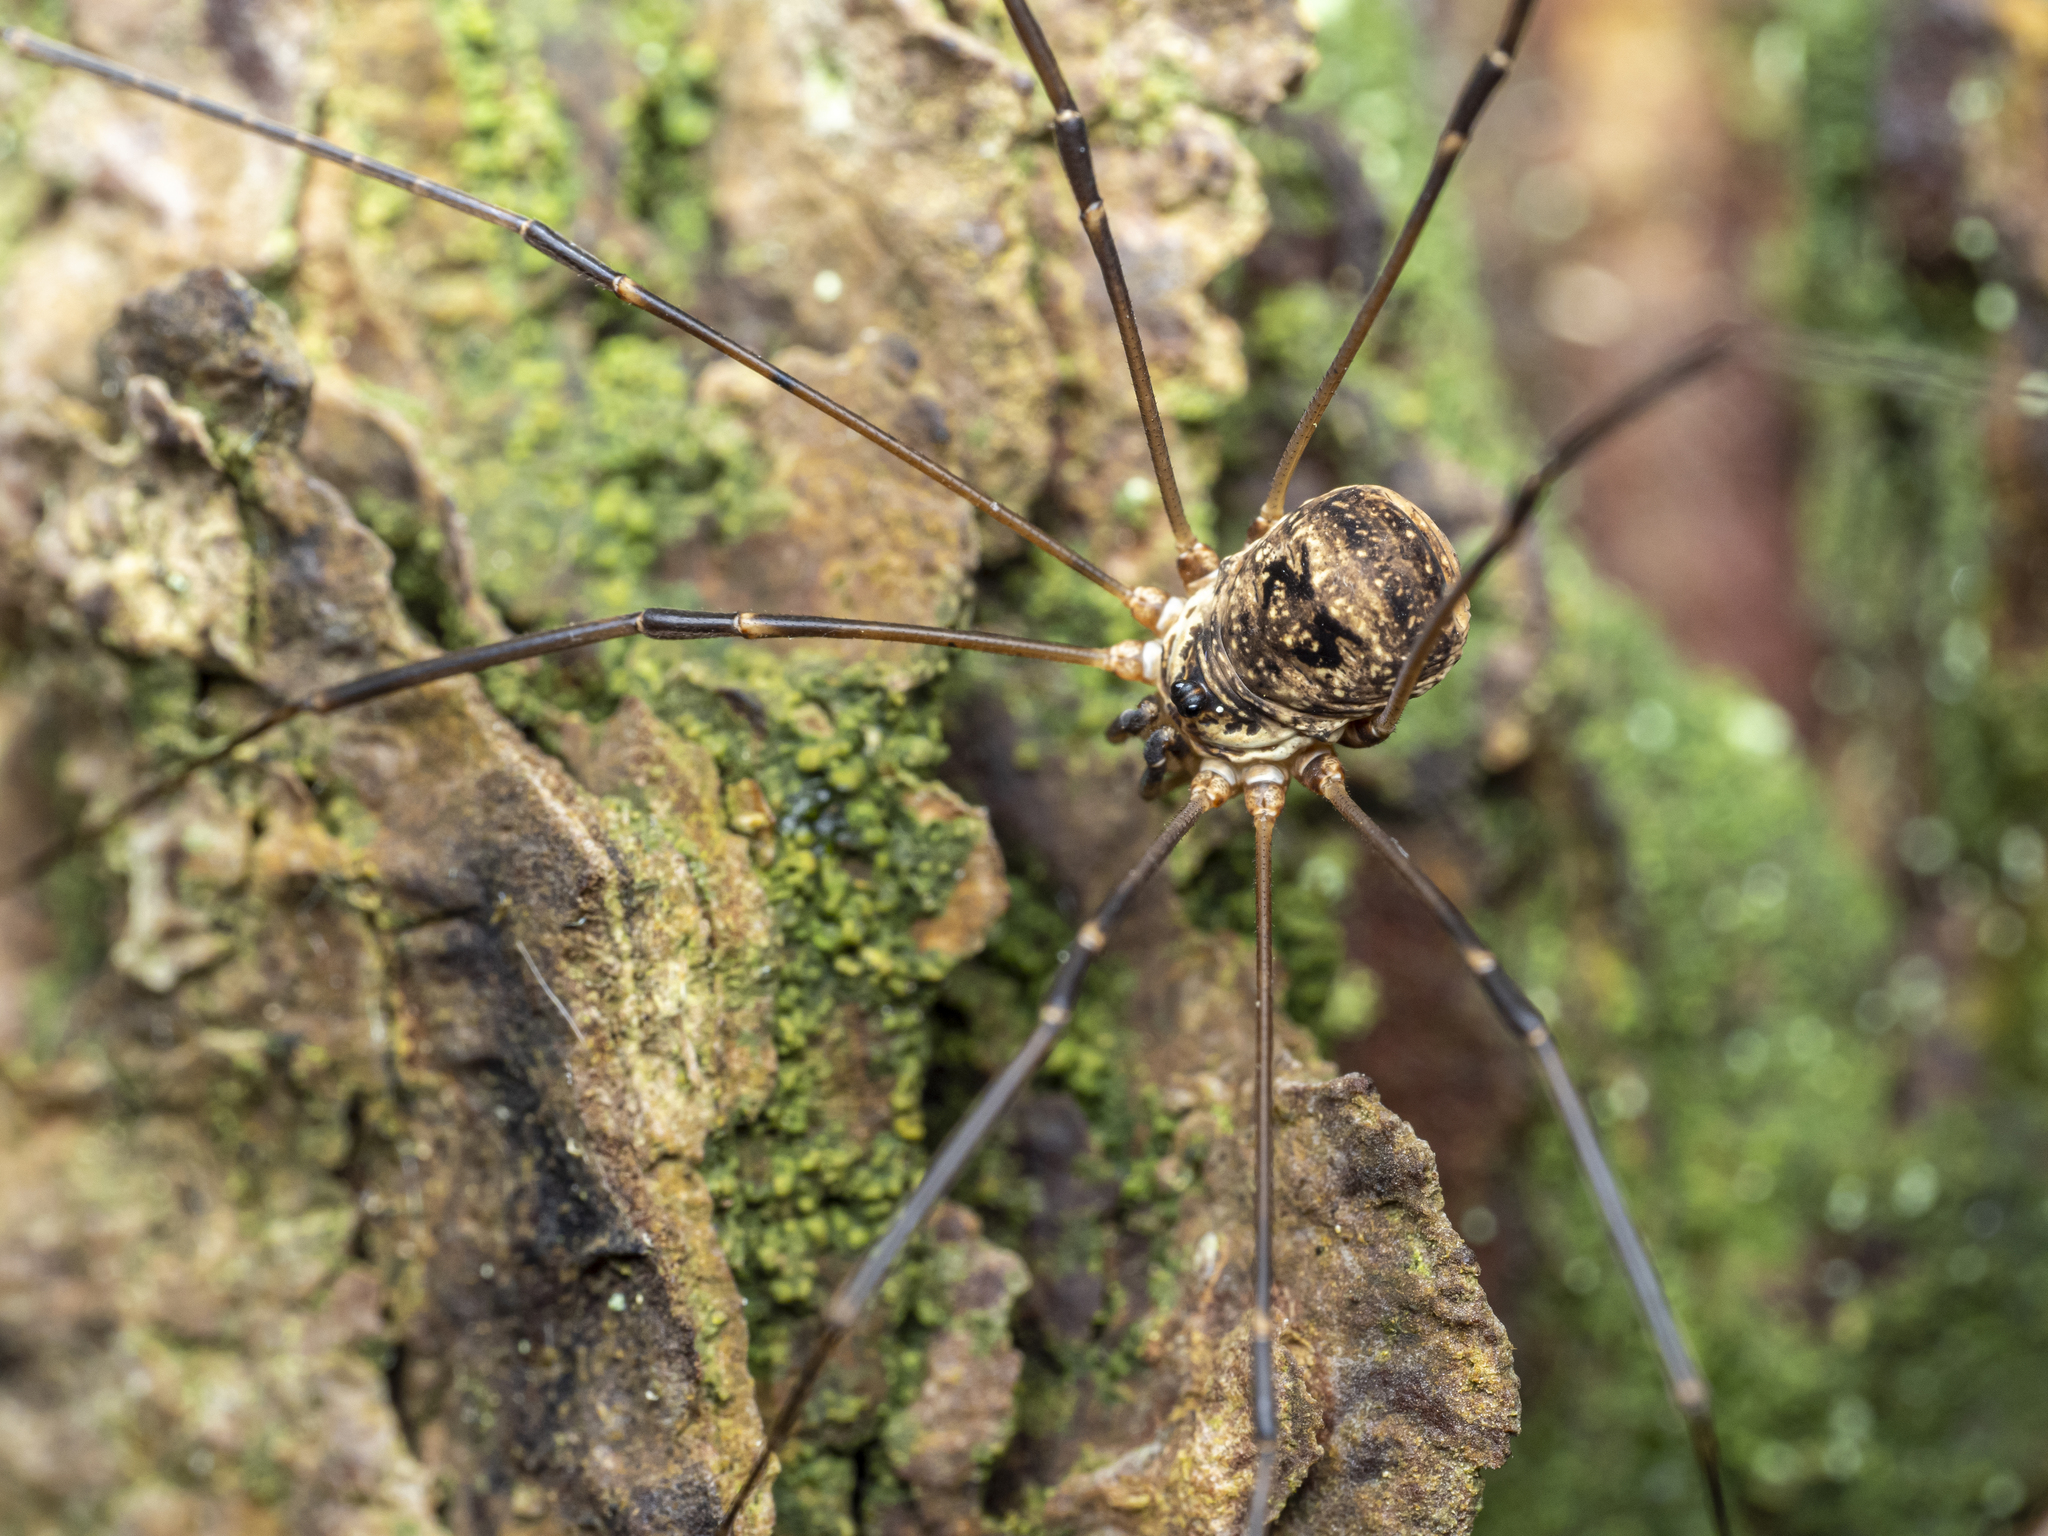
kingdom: Animalia
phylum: Arthropoda
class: Arachnida
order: Opiliones
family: Phalangiidae
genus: Amilenus
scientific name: Amilenus aurantiacus
